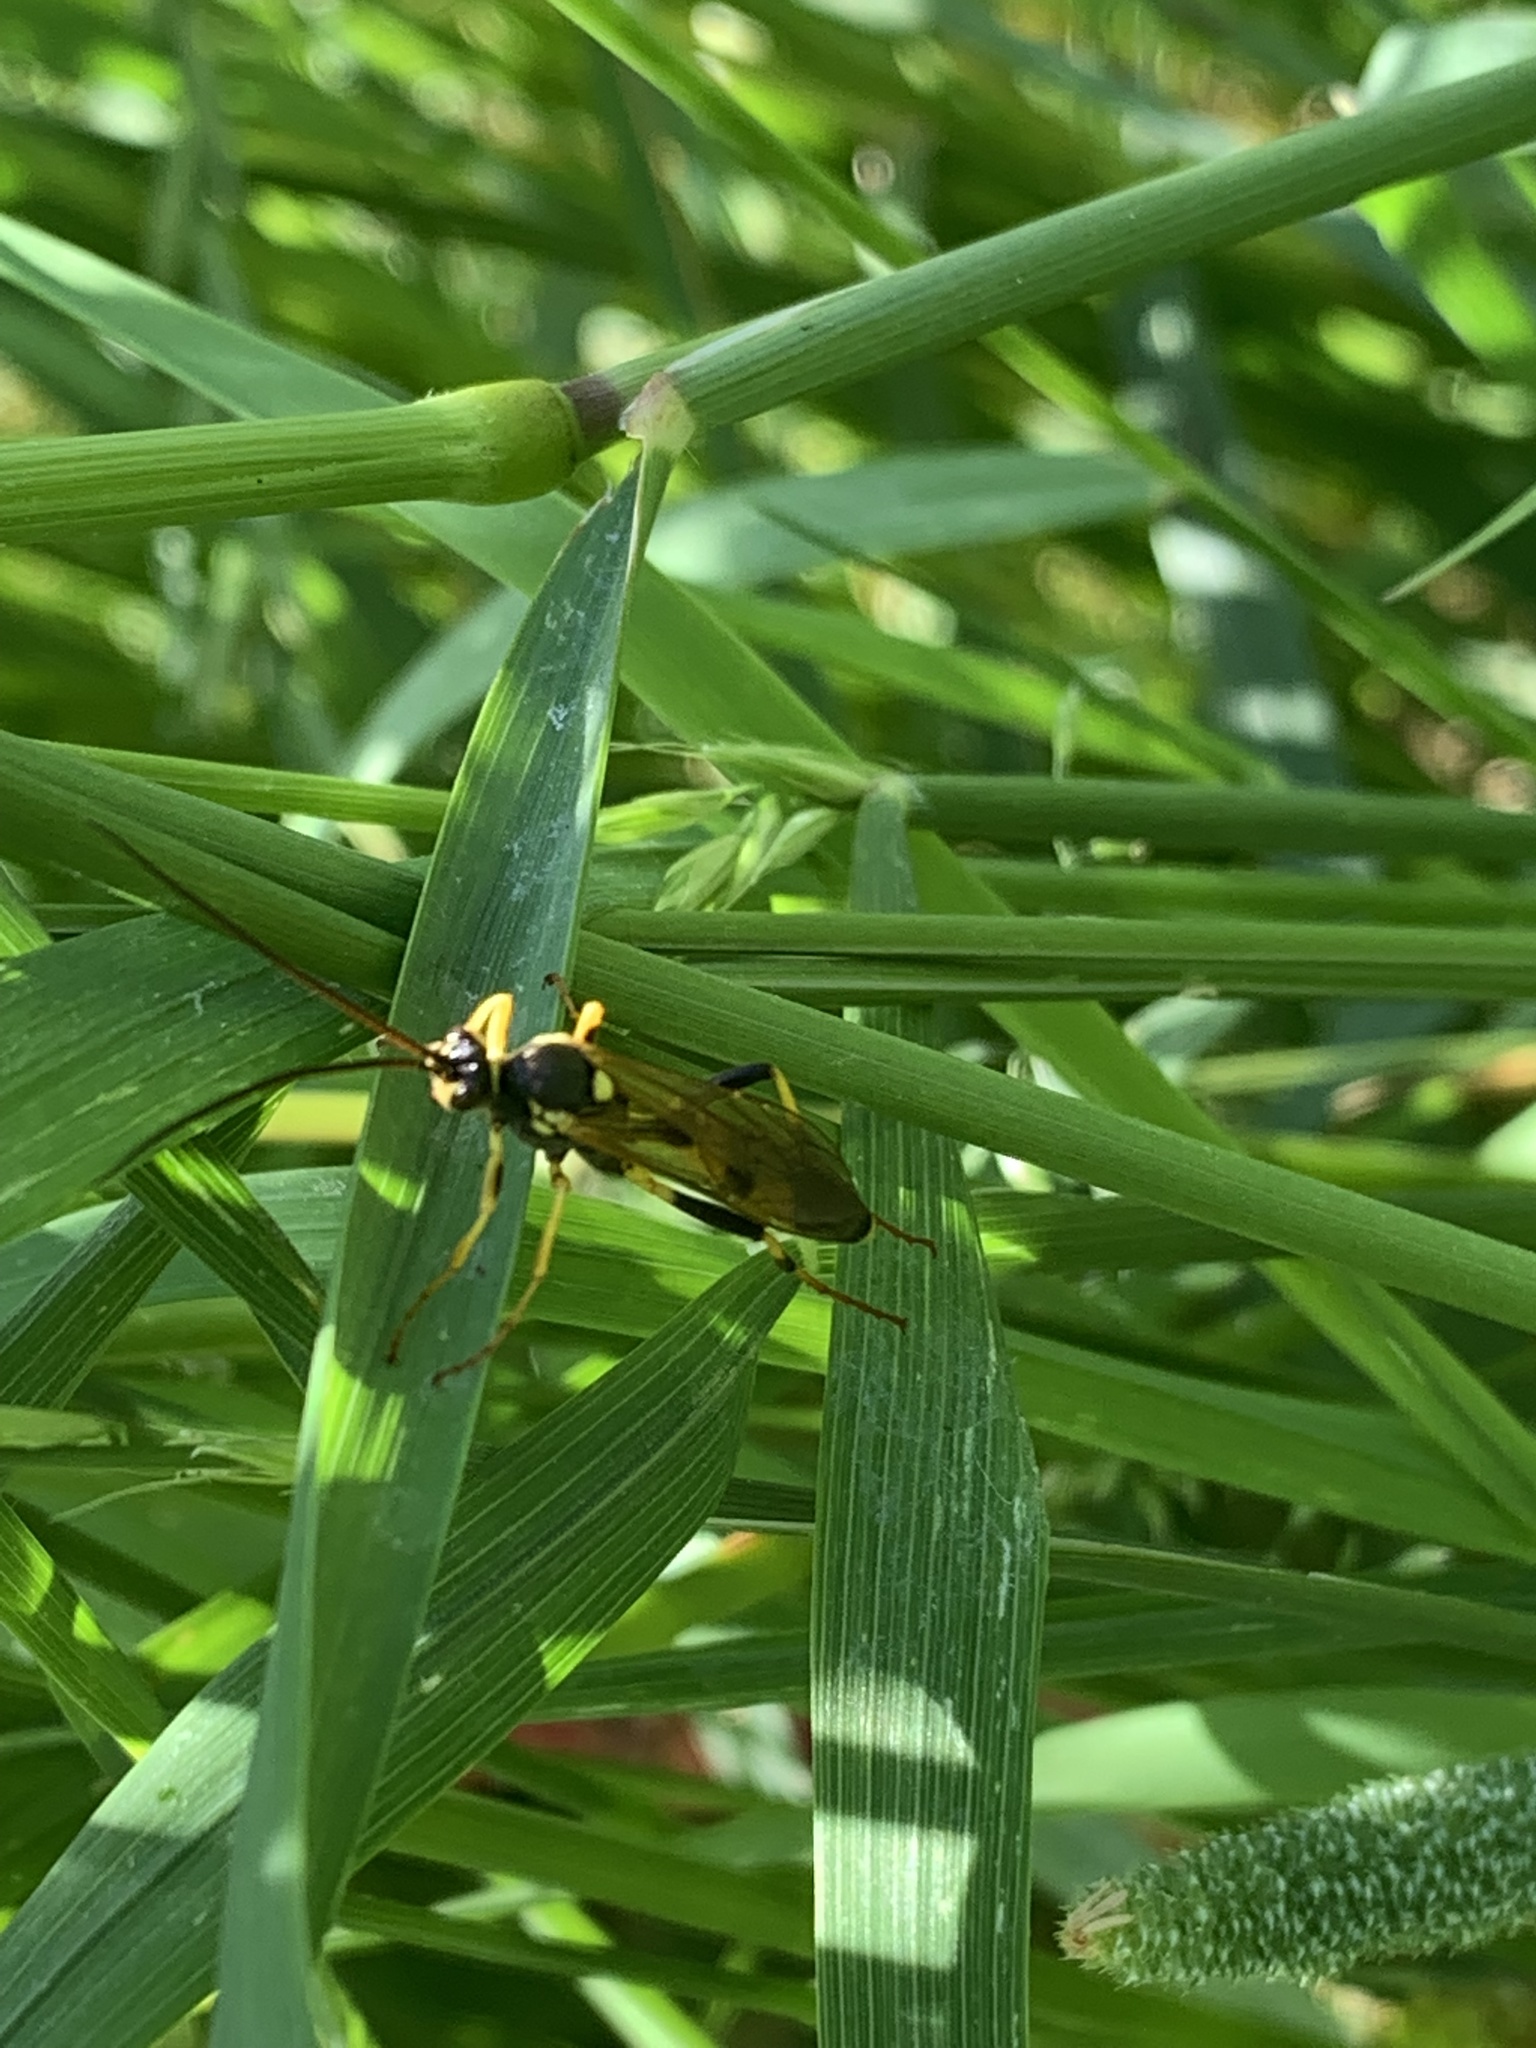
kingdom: Animalia
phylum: Arthropoda
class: Insecta
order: Hymenoptera
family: Ichneumonidae
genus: Amblyteles
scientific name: Amblyteles armatorius
